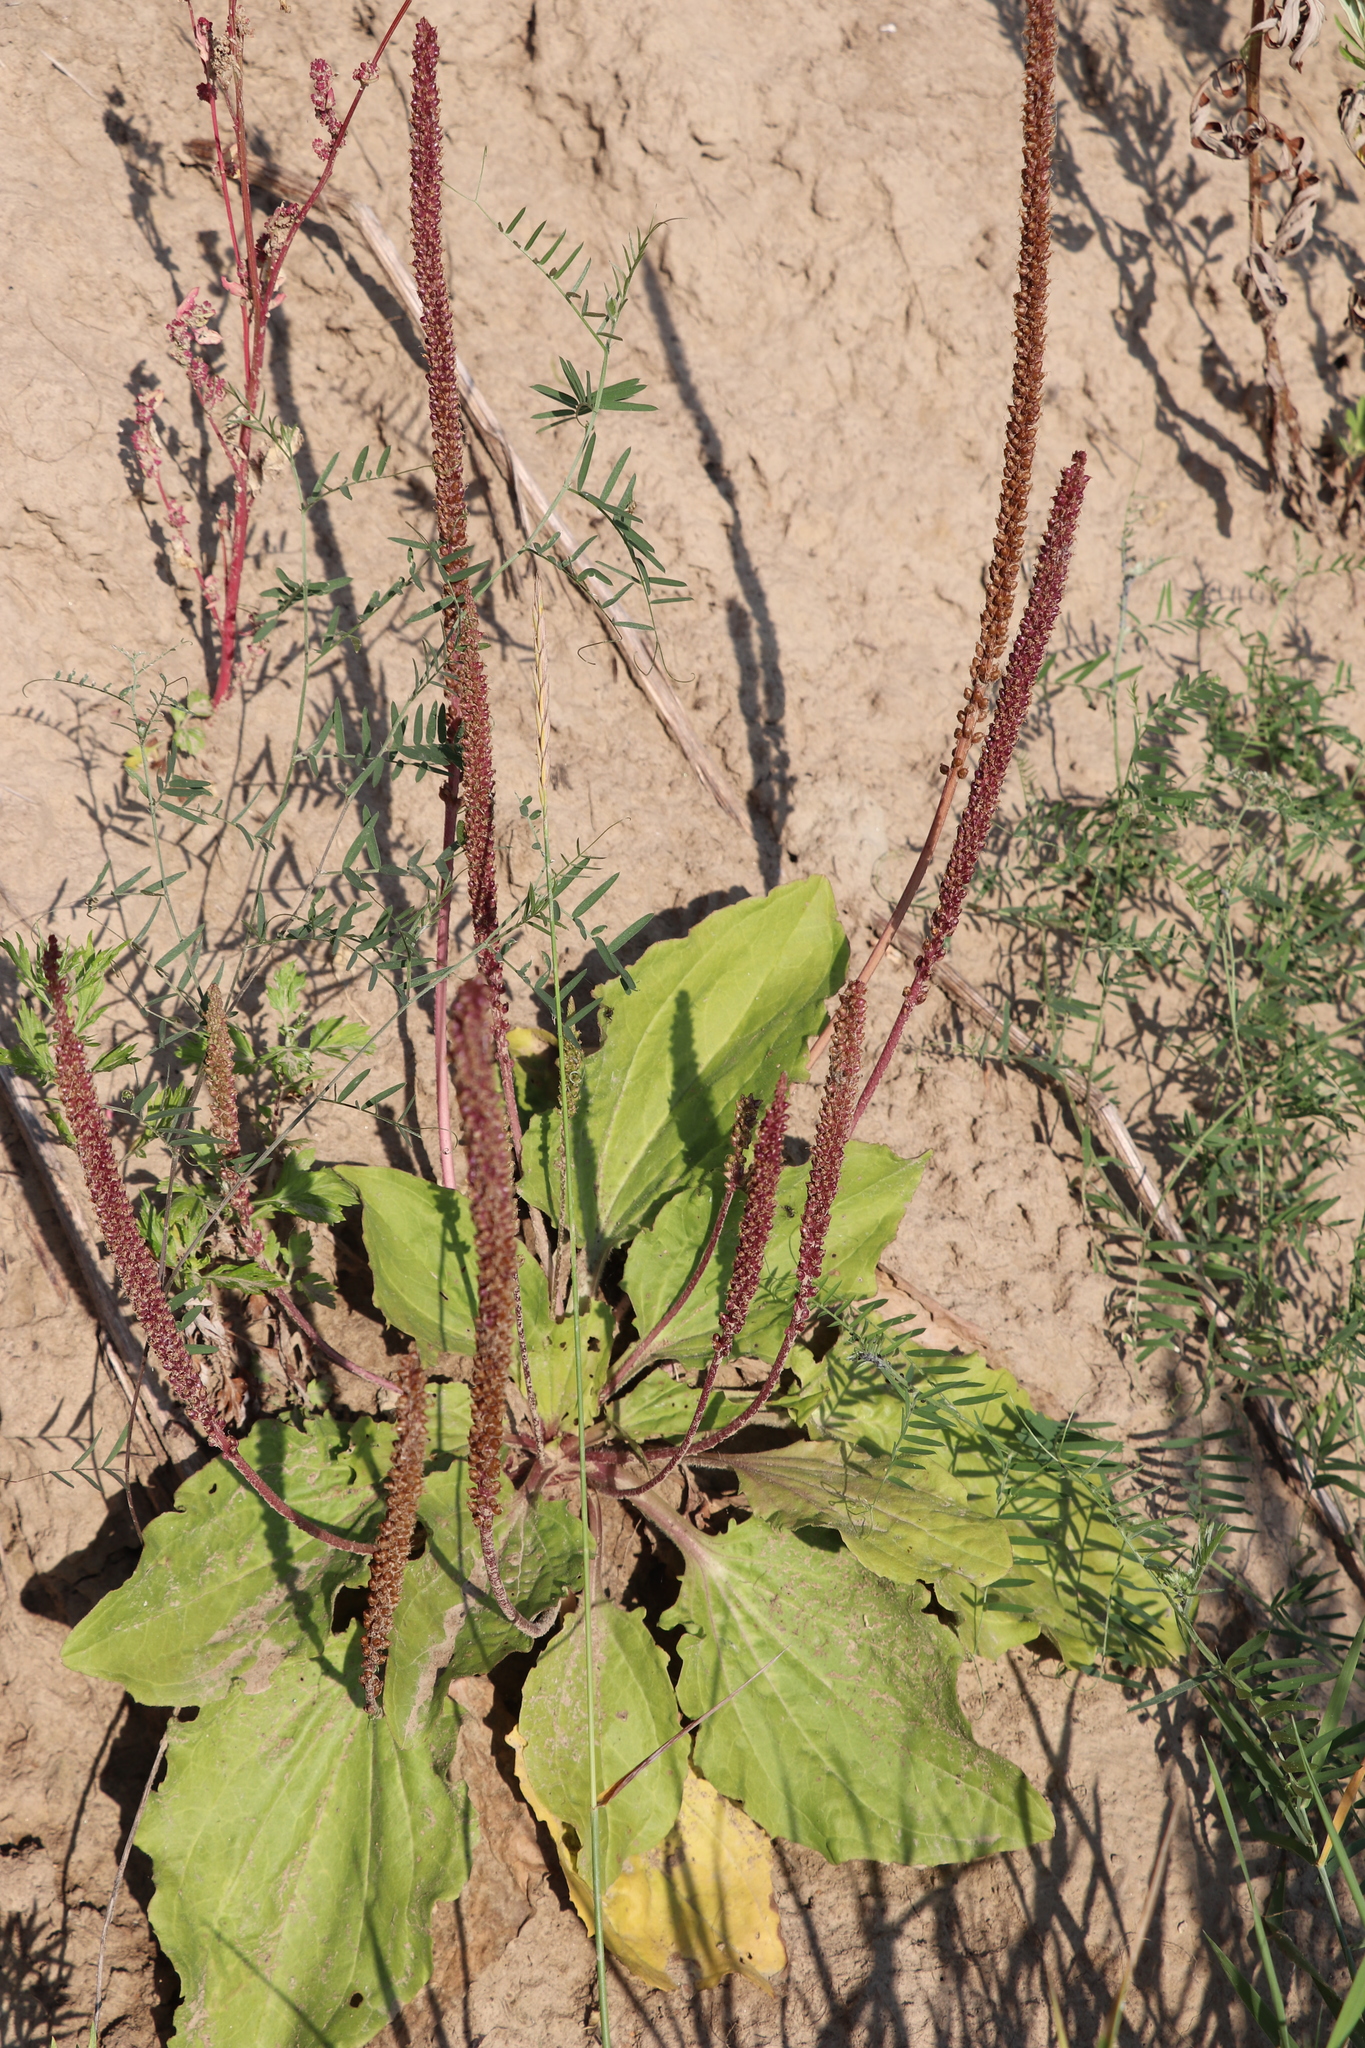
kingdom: Plantae
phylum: Tracheophyta
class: Magnoliopsida
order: Lamiales
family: Plantaginaceae
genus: Plantago
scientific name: Plantago major
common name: Common plantain
